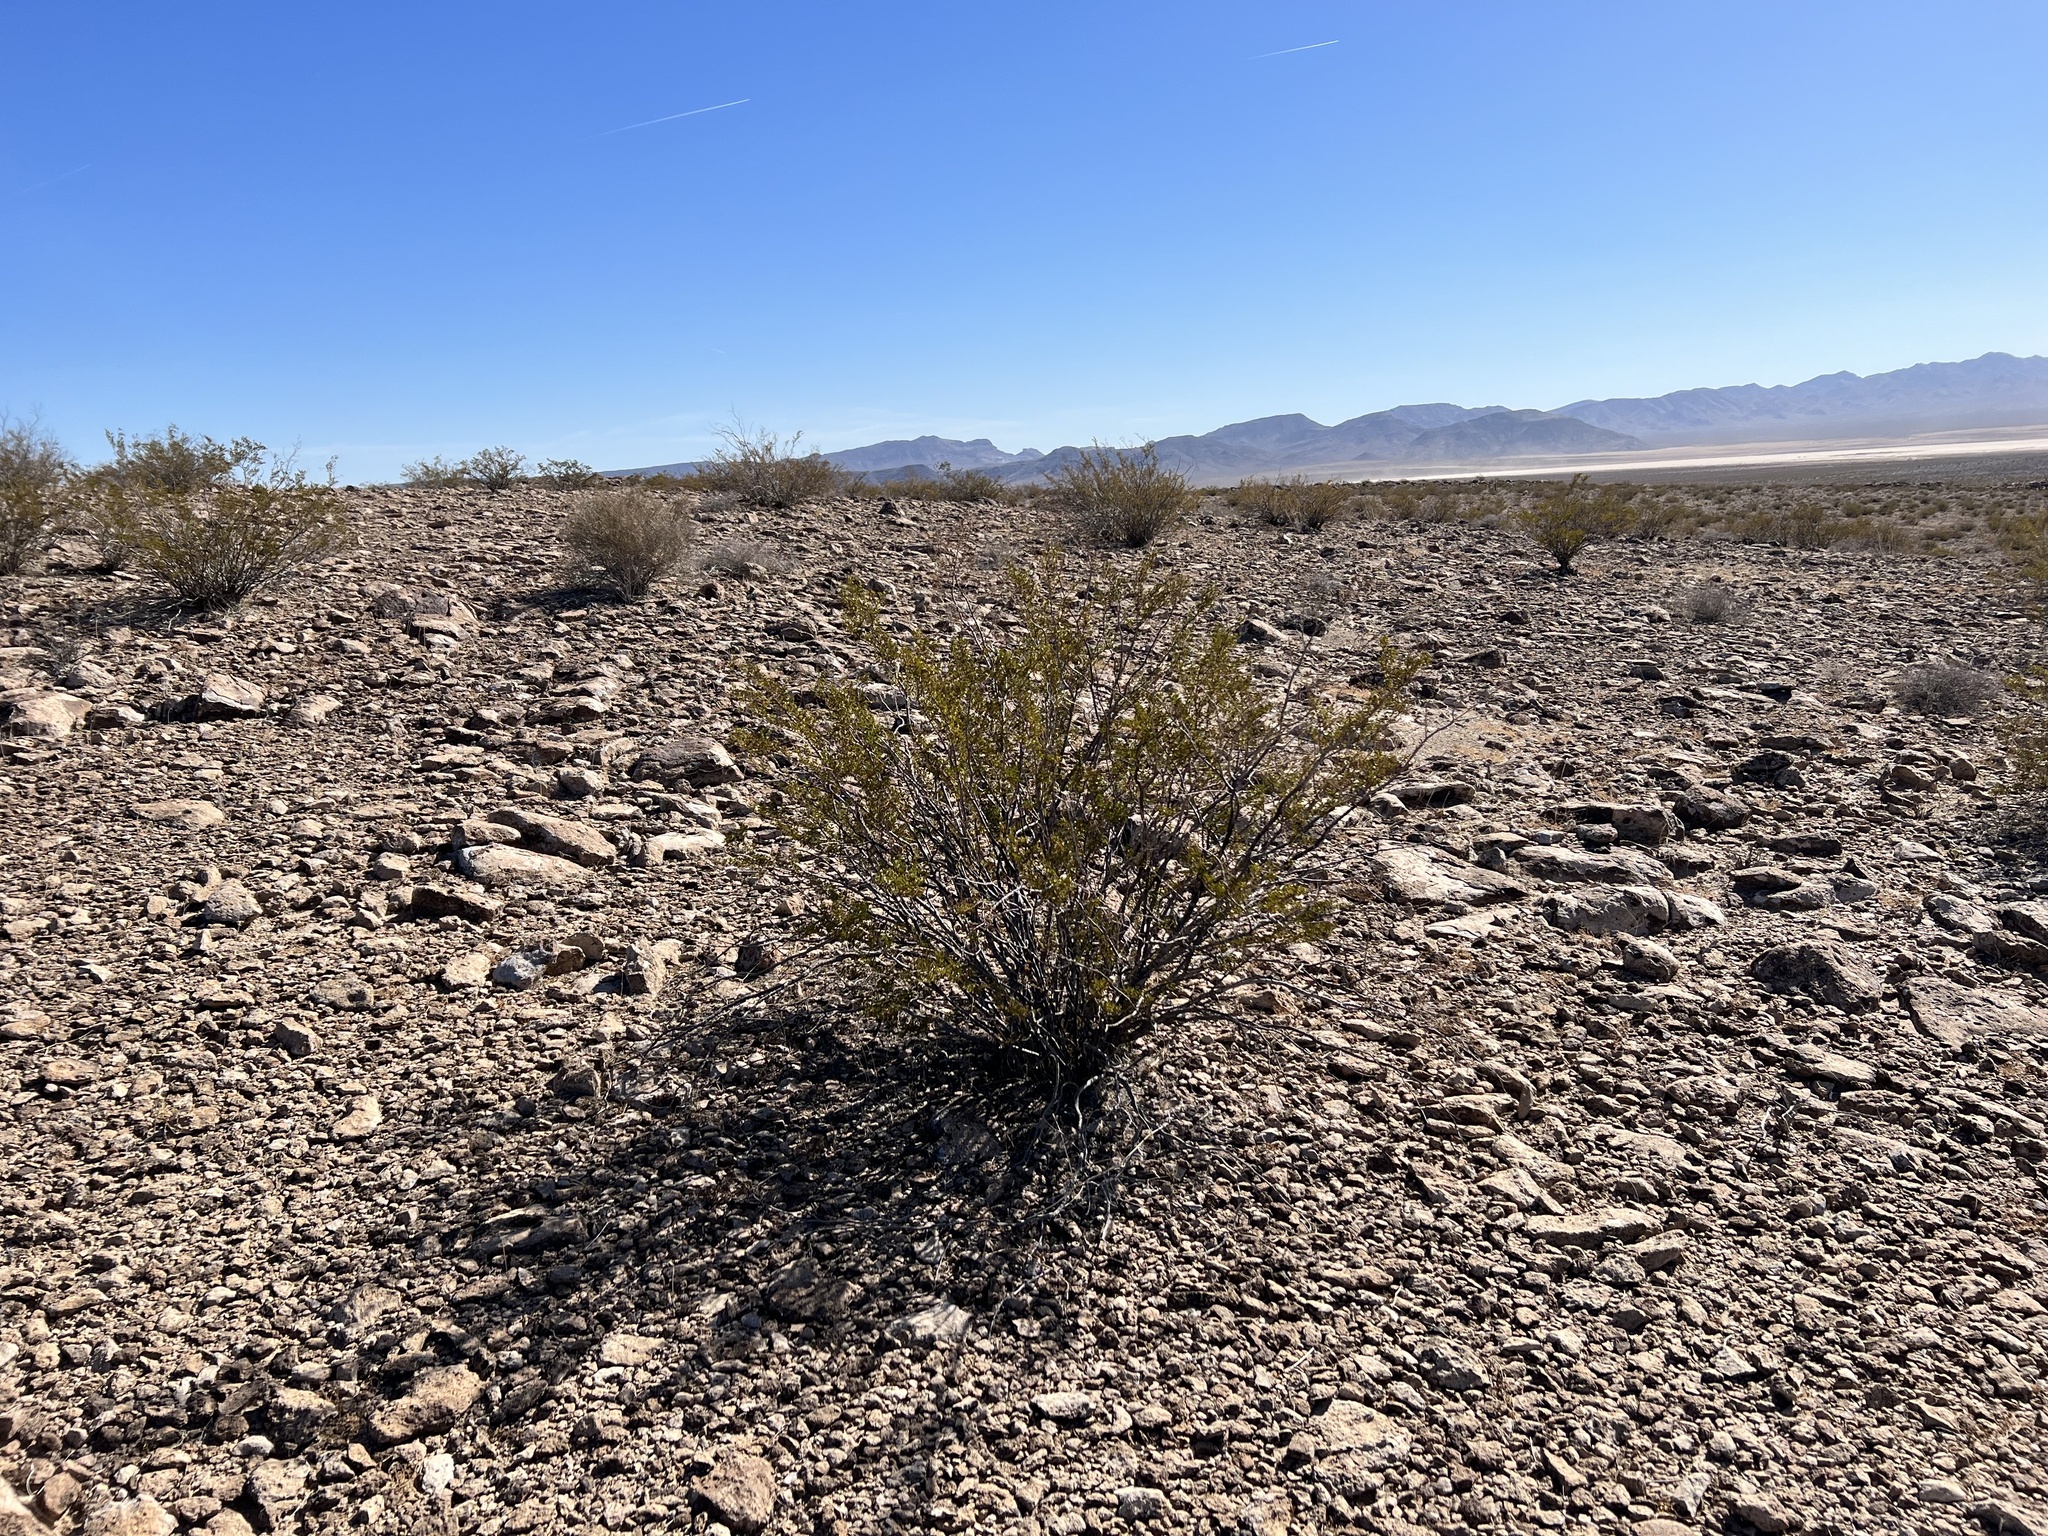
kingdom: Plantae
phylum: Tracheophyta
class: Magnoliopsida
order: Zygophyllales
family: Zygophyllaceae
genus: Larrea
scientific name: Larrea tridentata
